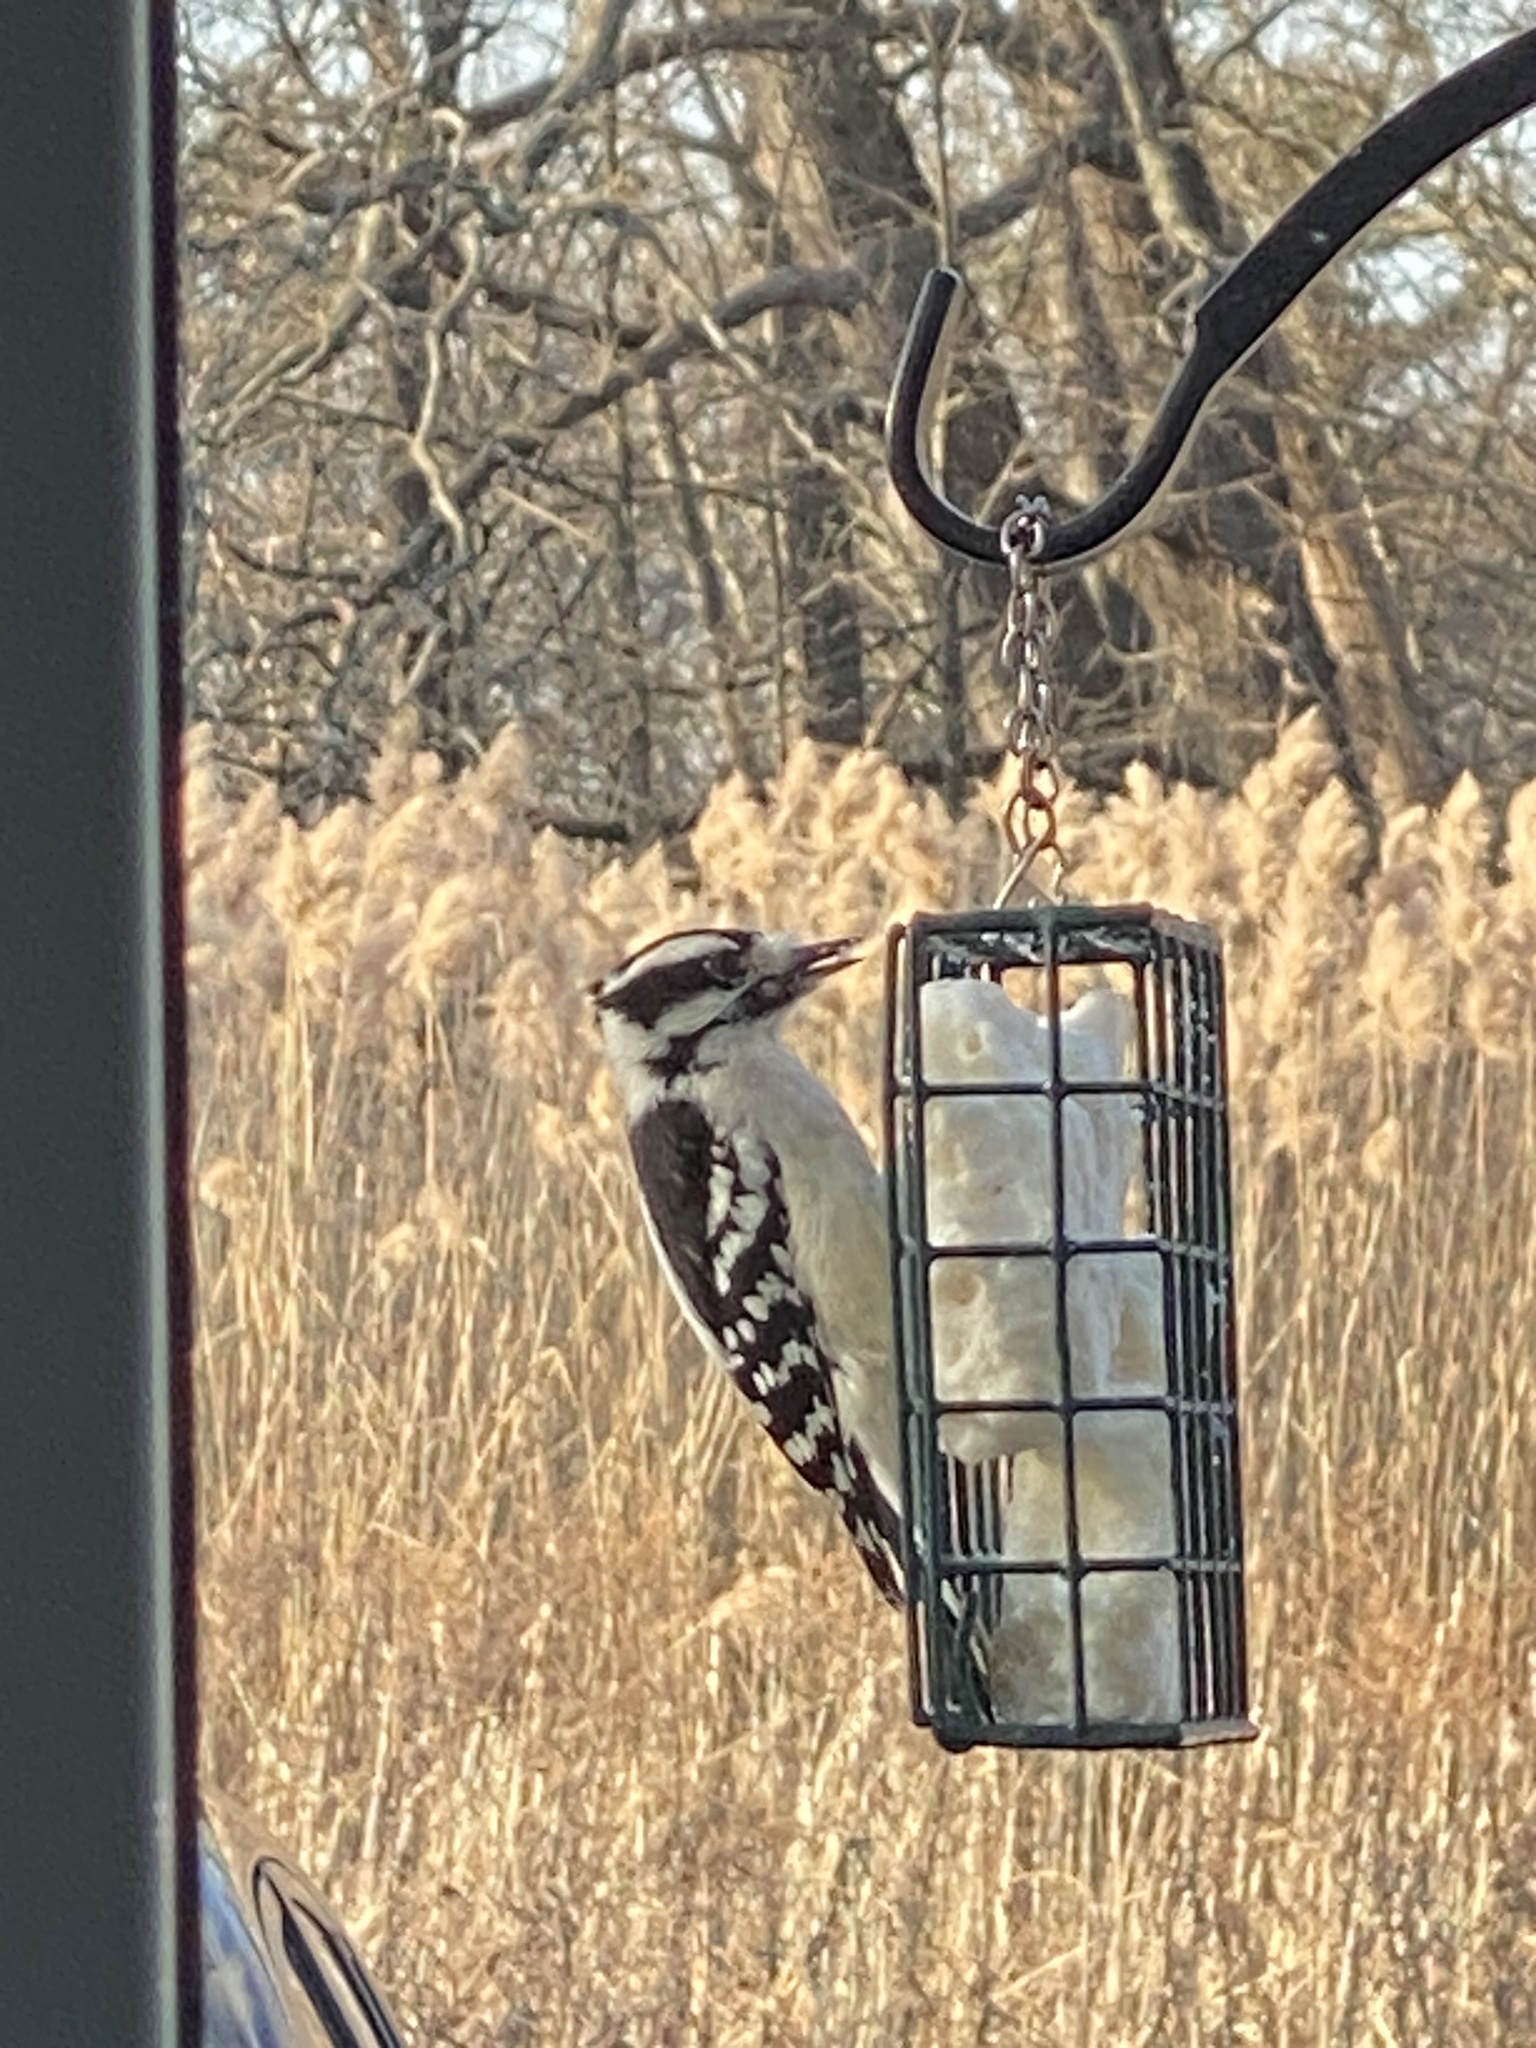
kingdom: Animalia
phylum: Chordata
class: Aves
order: Piciformes
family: Picidae
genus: Dryobates
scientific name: Dryobates pubescens
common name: Downy woodpecker
